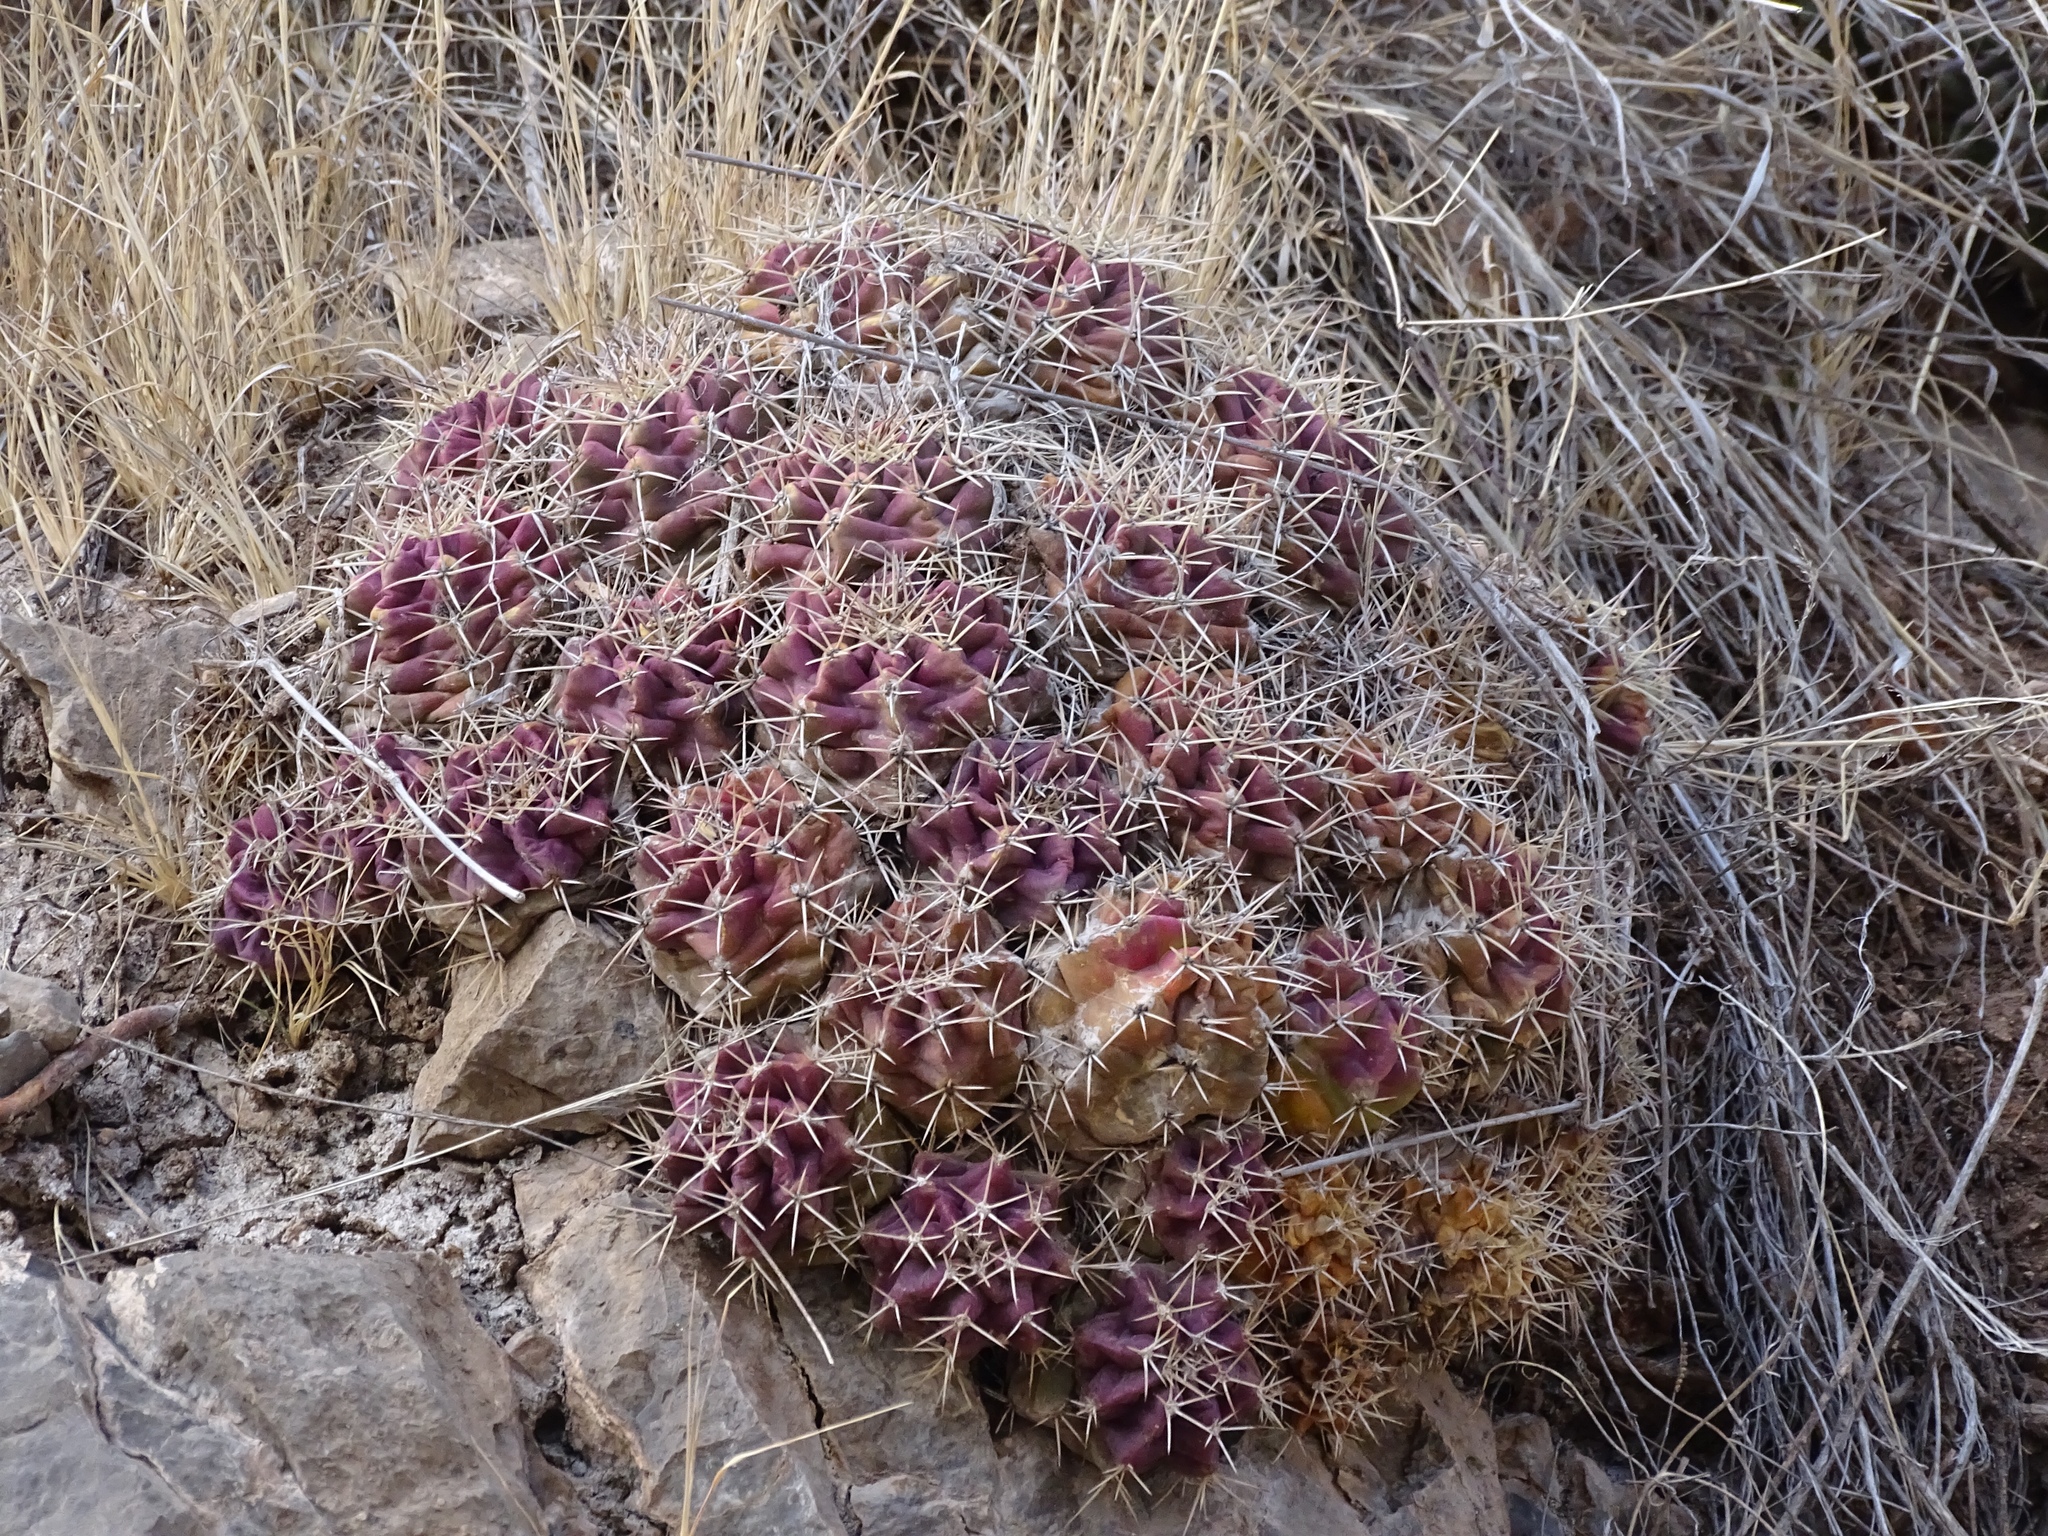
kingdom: Plantae
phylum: Tracheophyta
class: Magnoliopsida
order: Caryophyllales
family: Cactaceae
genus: Echinocereus
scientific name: Echinocereus coccineus
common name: Scarlet hedgehog cactus
